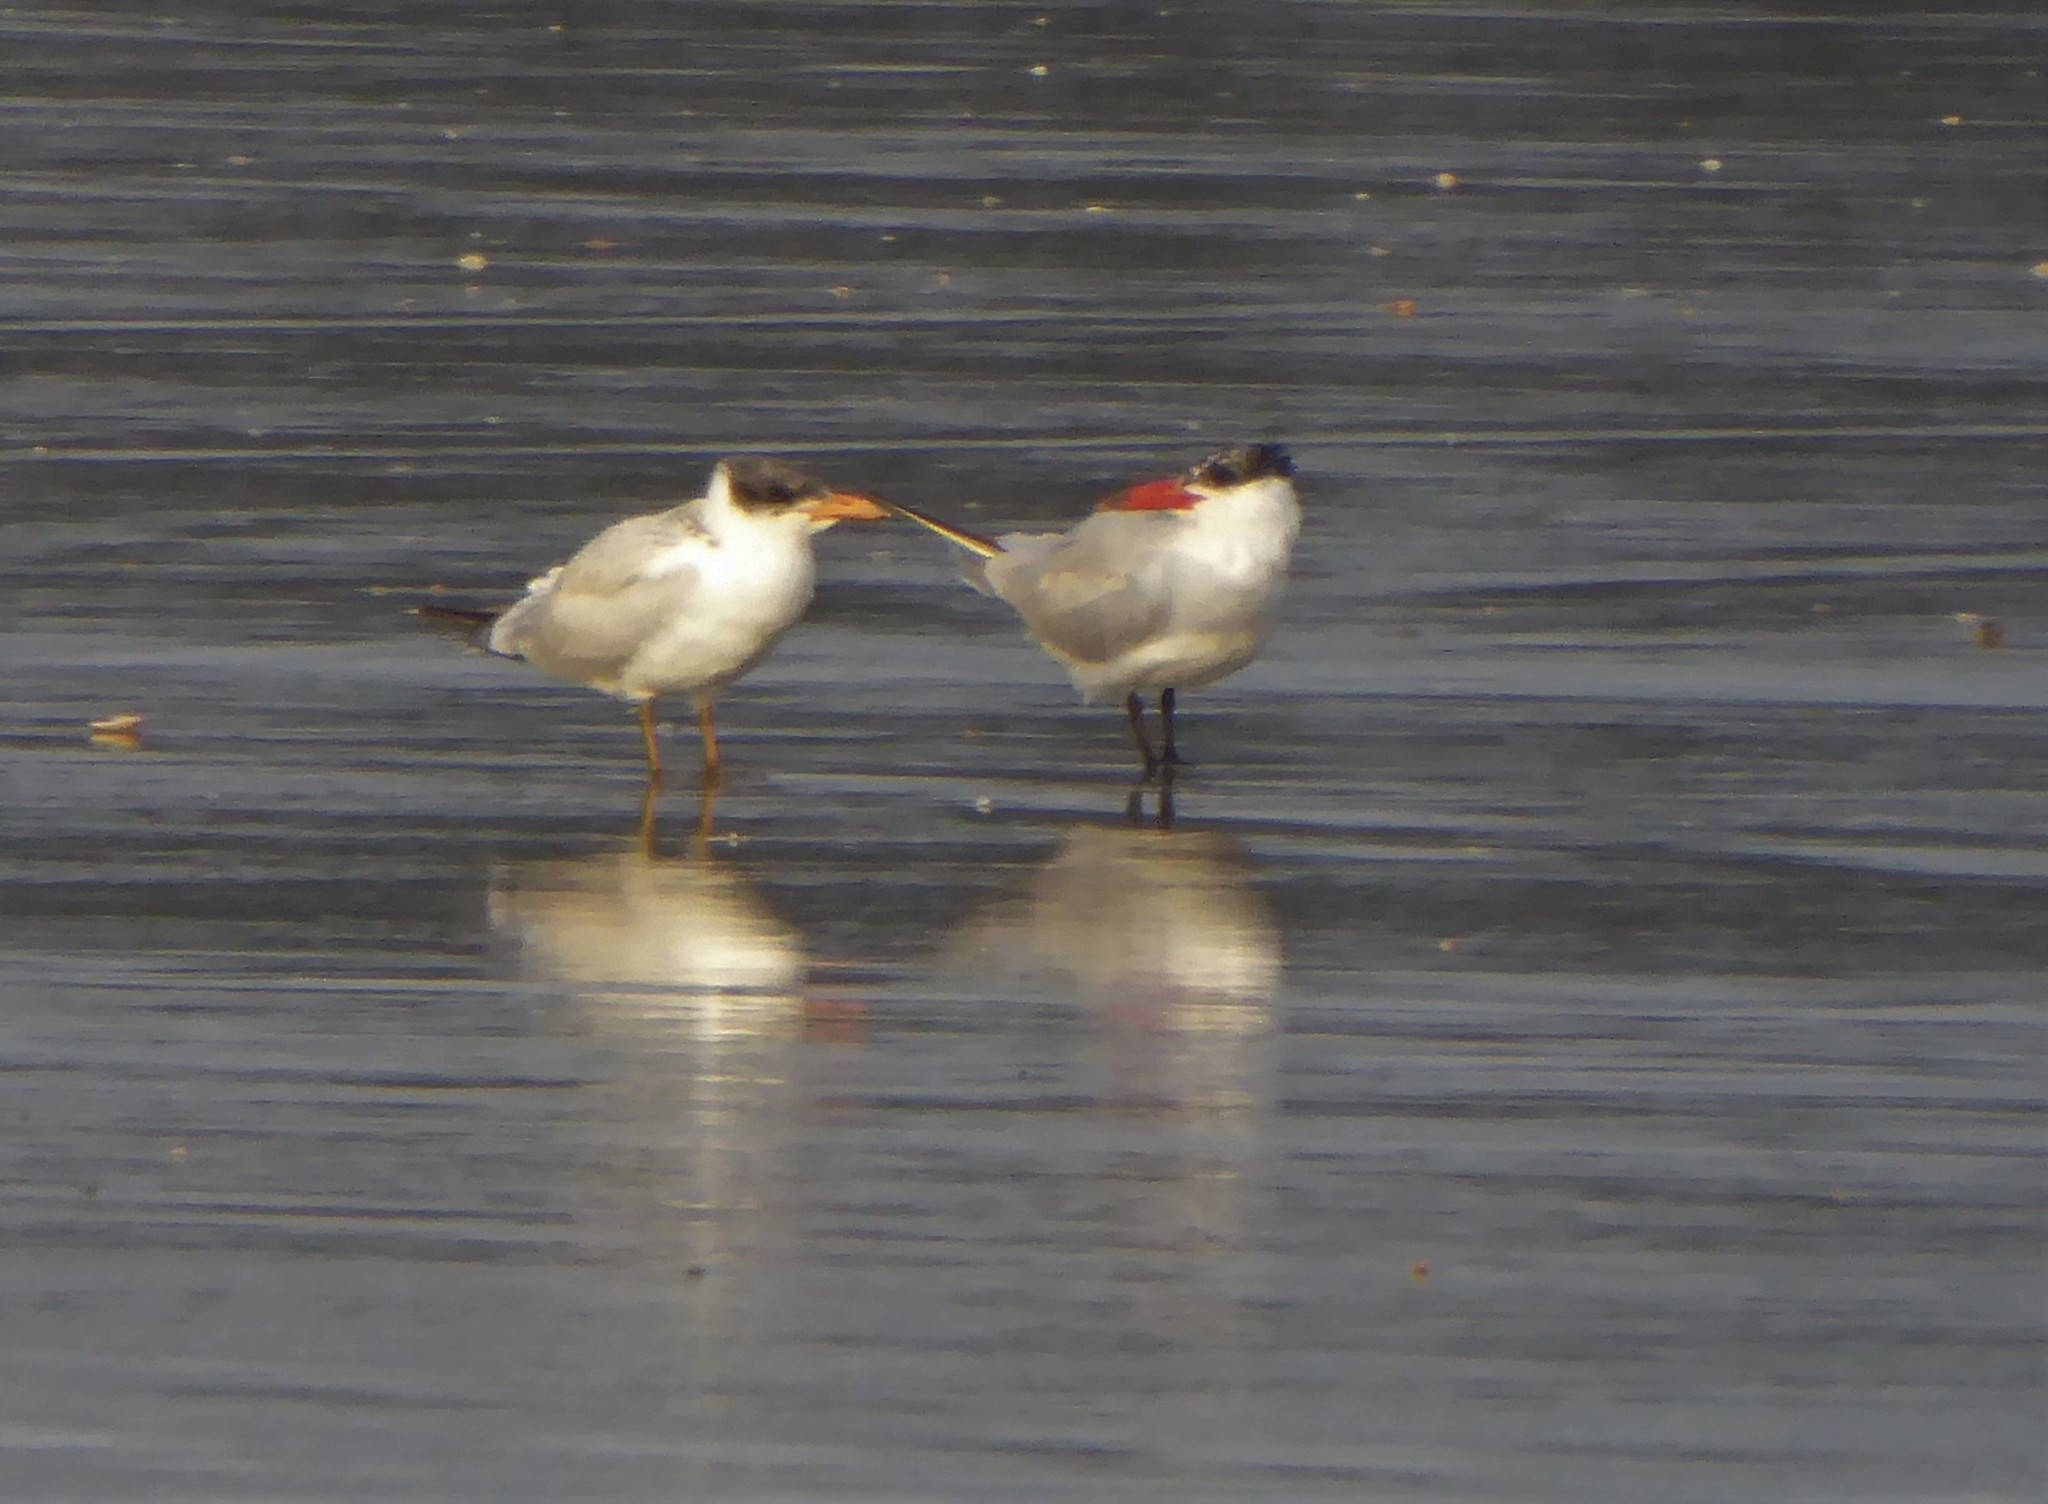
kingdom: Animalia
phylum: Chordata
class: Aves
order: Charadriiformes
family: Laridae
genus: Hydroprogne
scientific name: Hydroprogne caspia
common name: Caspian tern
